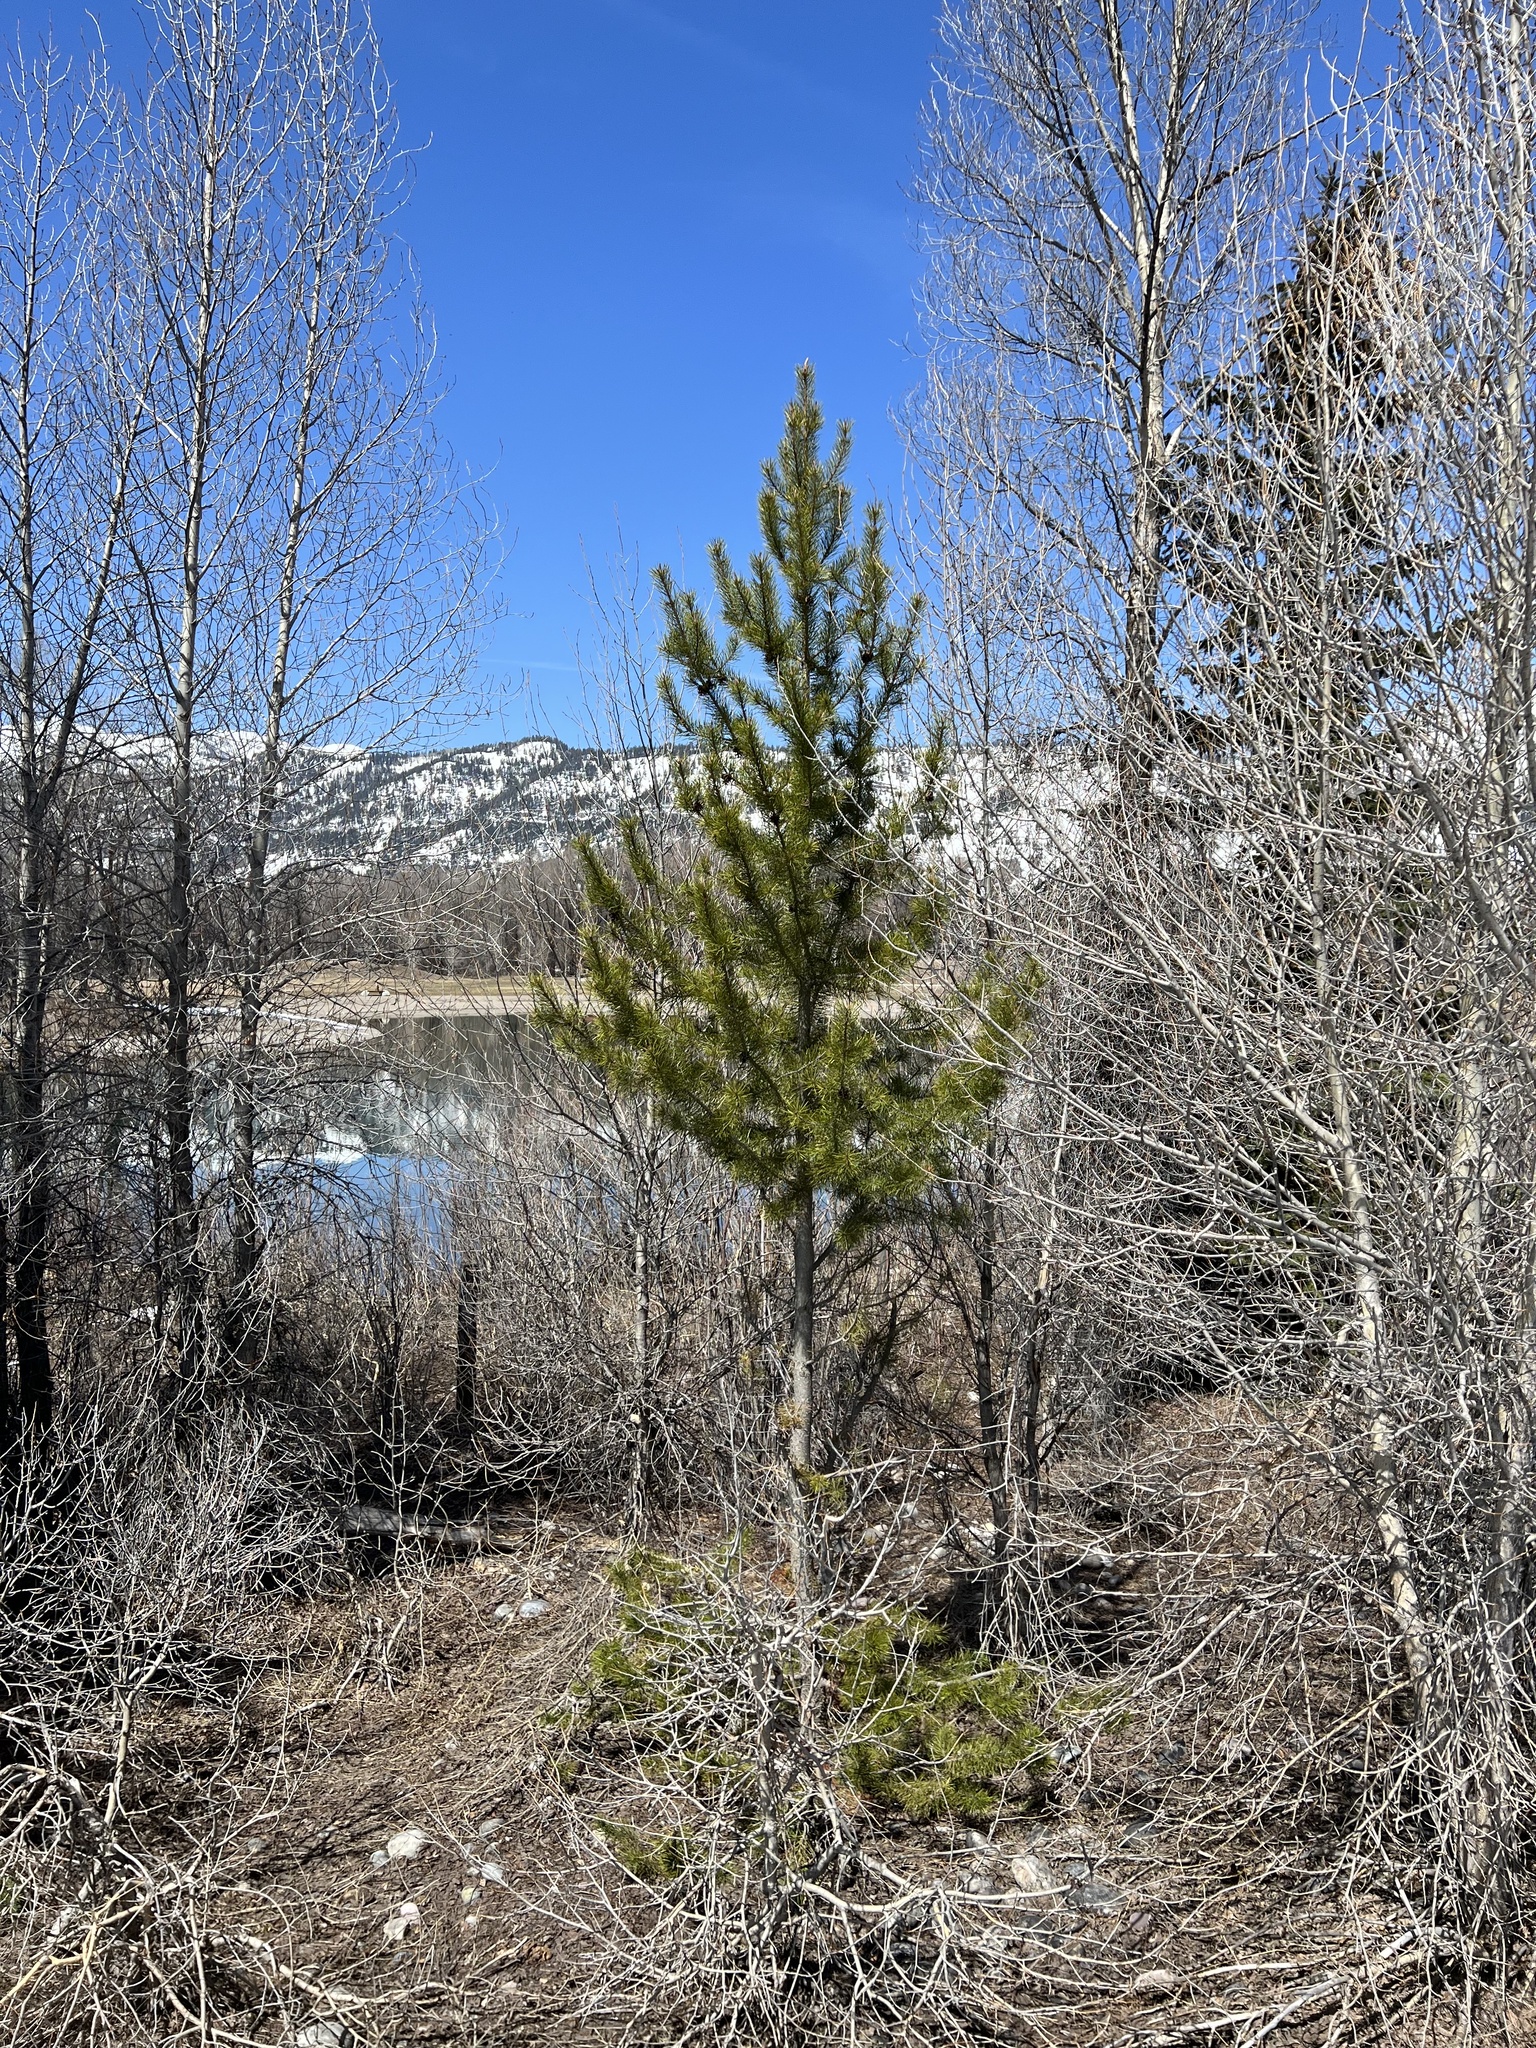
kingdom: Plantae
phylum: Tracheophyta
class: Pinopsida
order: Pinales
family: Pinaceae
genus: Pinus
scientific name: Pinus contorta
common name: Lodgepole pine
